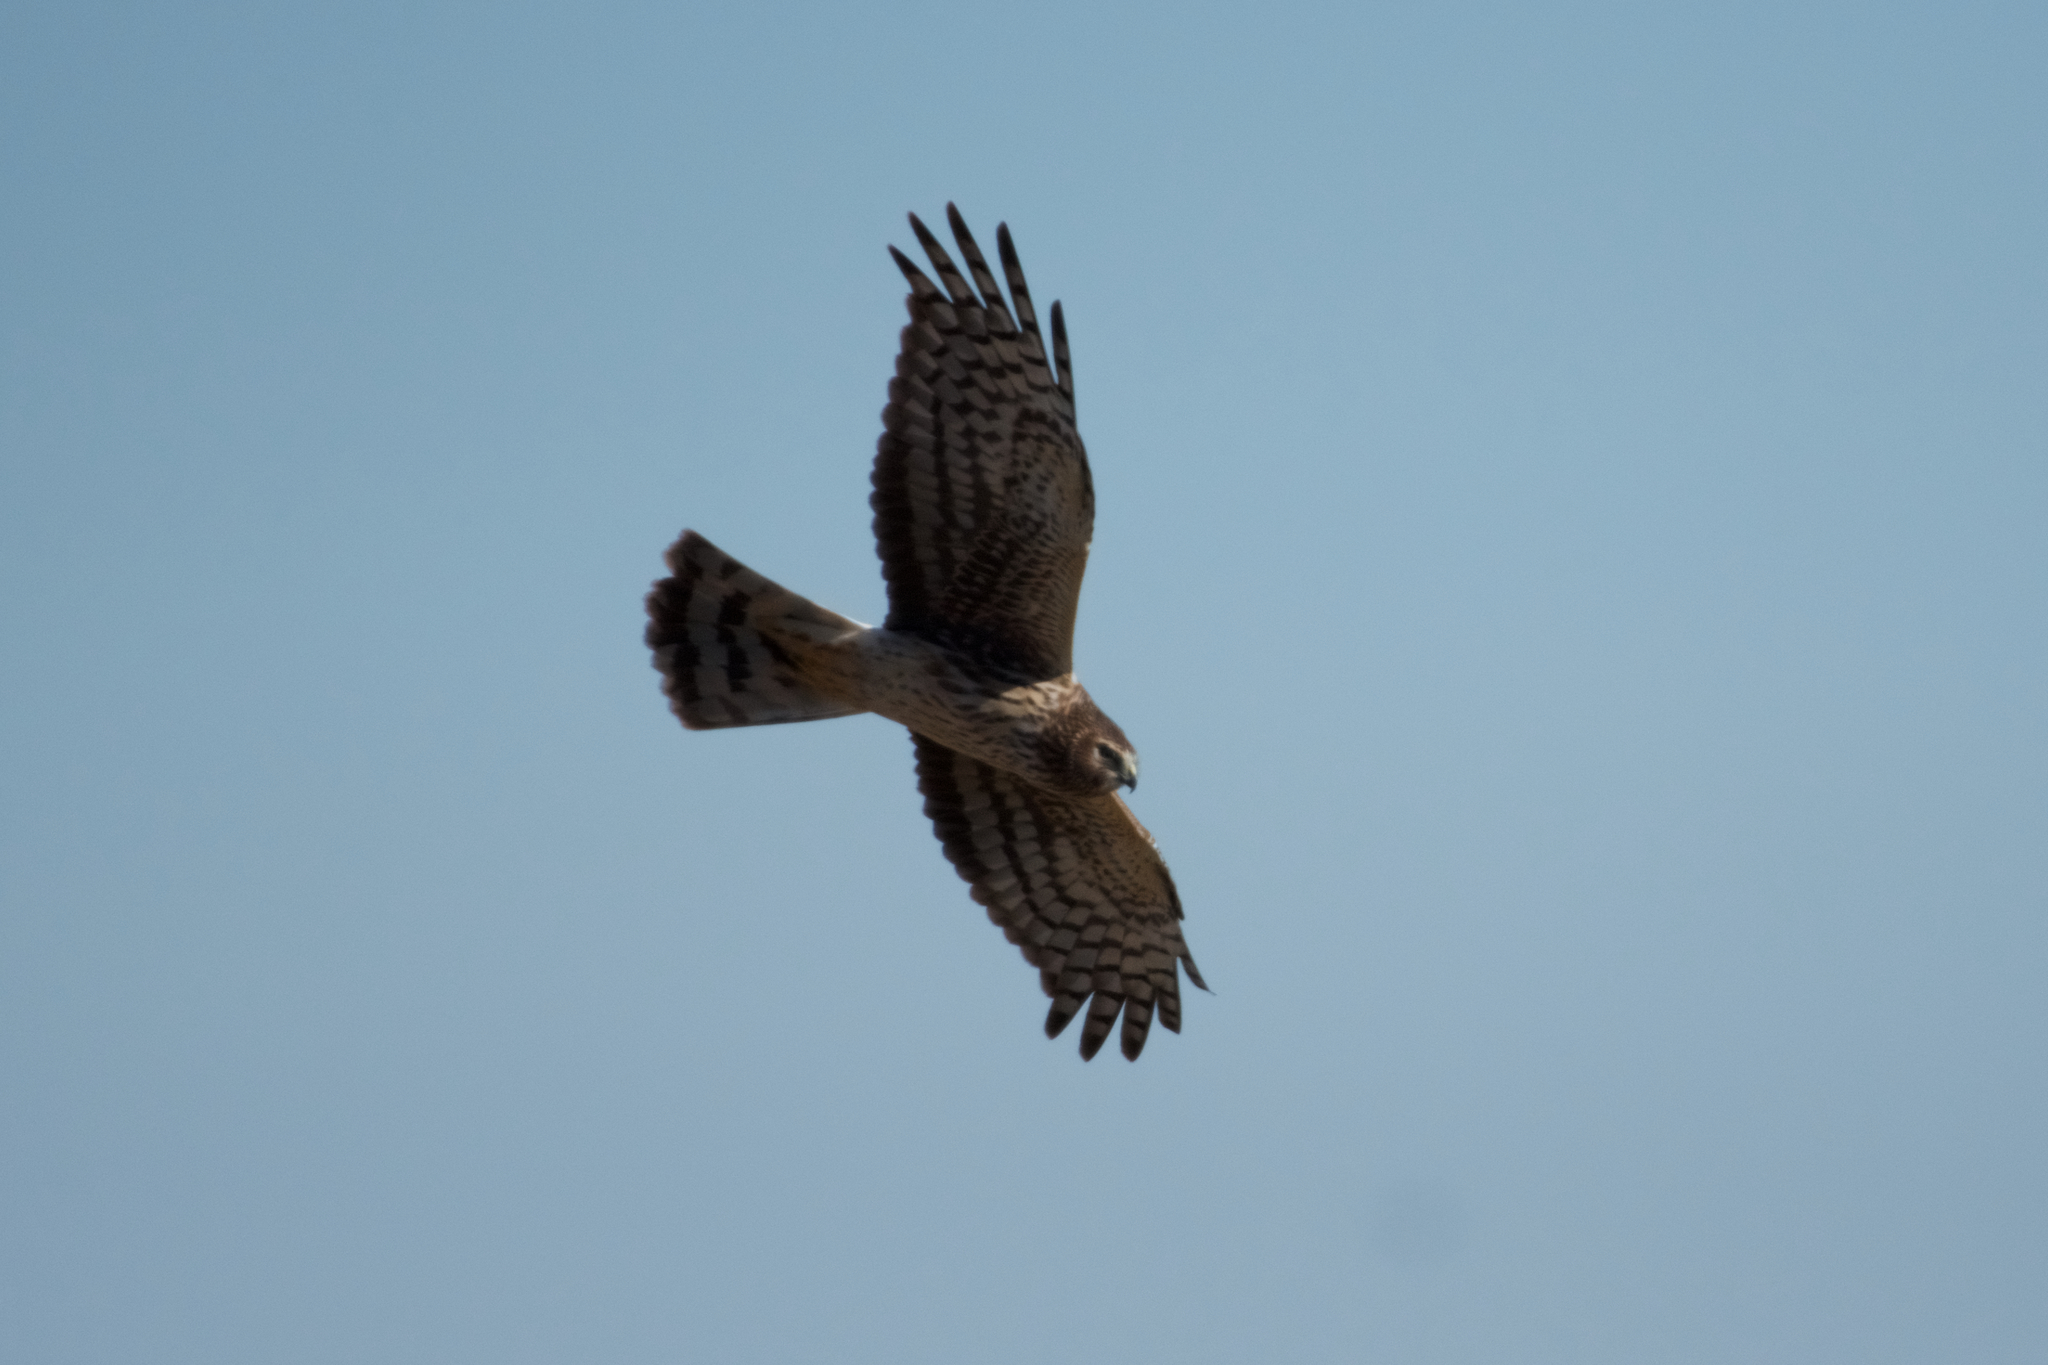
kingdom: Animalia
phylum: Chordata
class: Aves
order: Accipitriformes
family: Accipitridae
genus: Circus
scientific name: Circus cyaneus
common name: Hen harrier
